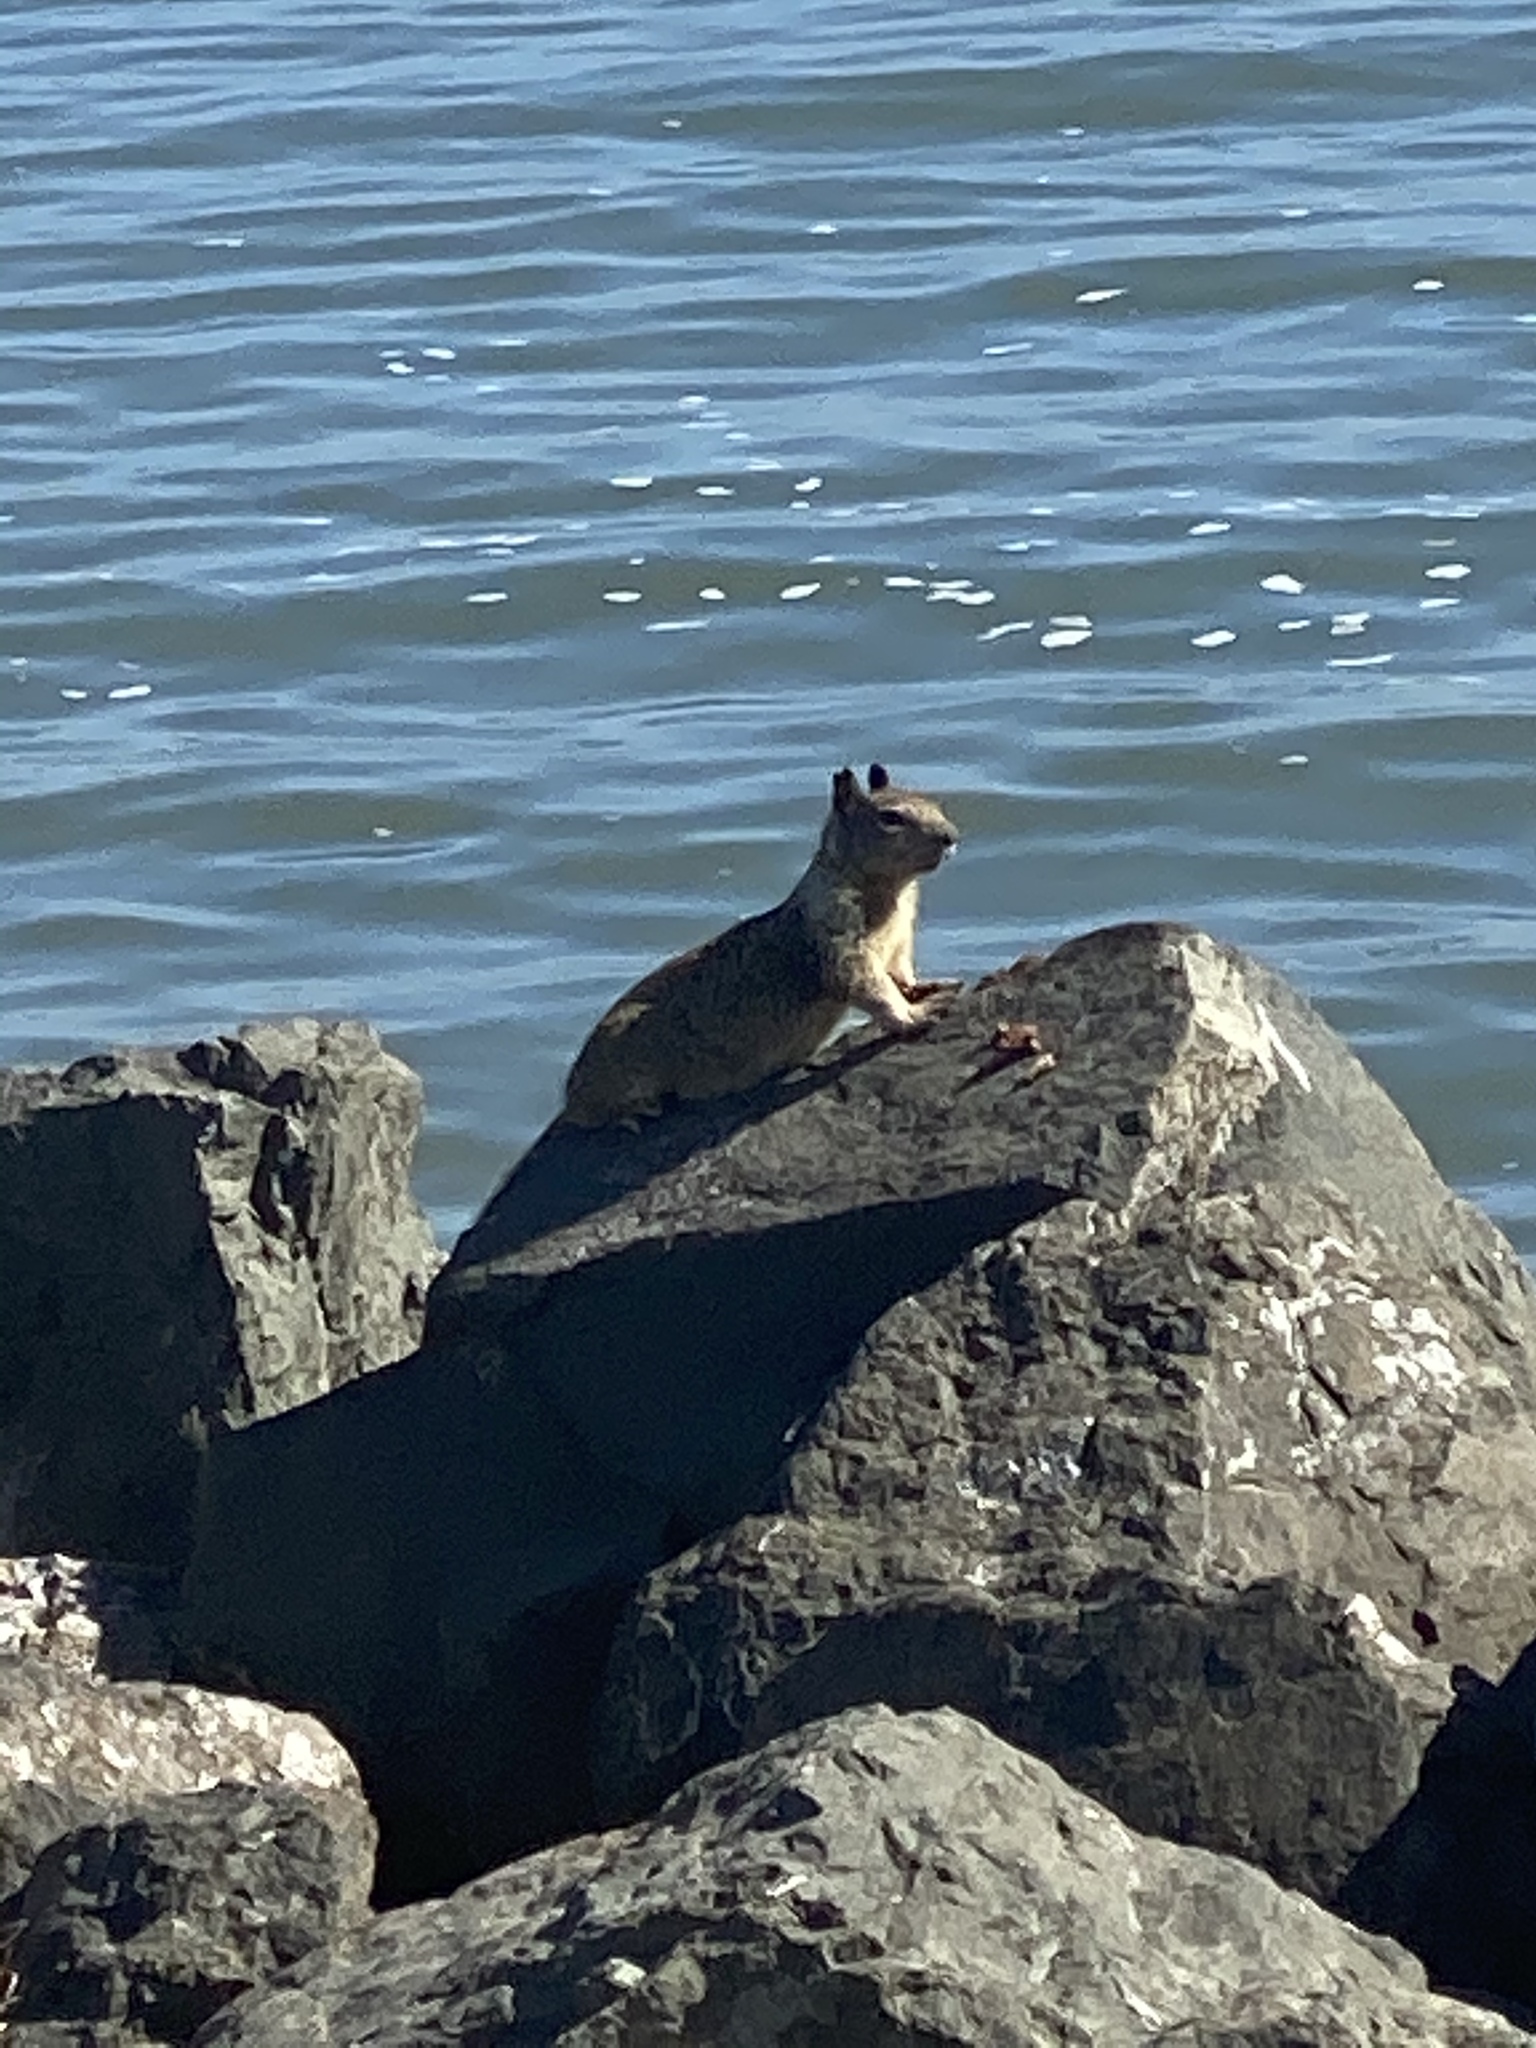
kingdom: Animalia
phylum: Chordata
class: Mammalia
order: Rodentia
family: Sciuridae
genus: Otospermophilus
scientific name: Otospermophilus beecheyi
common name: California ground squirrel
